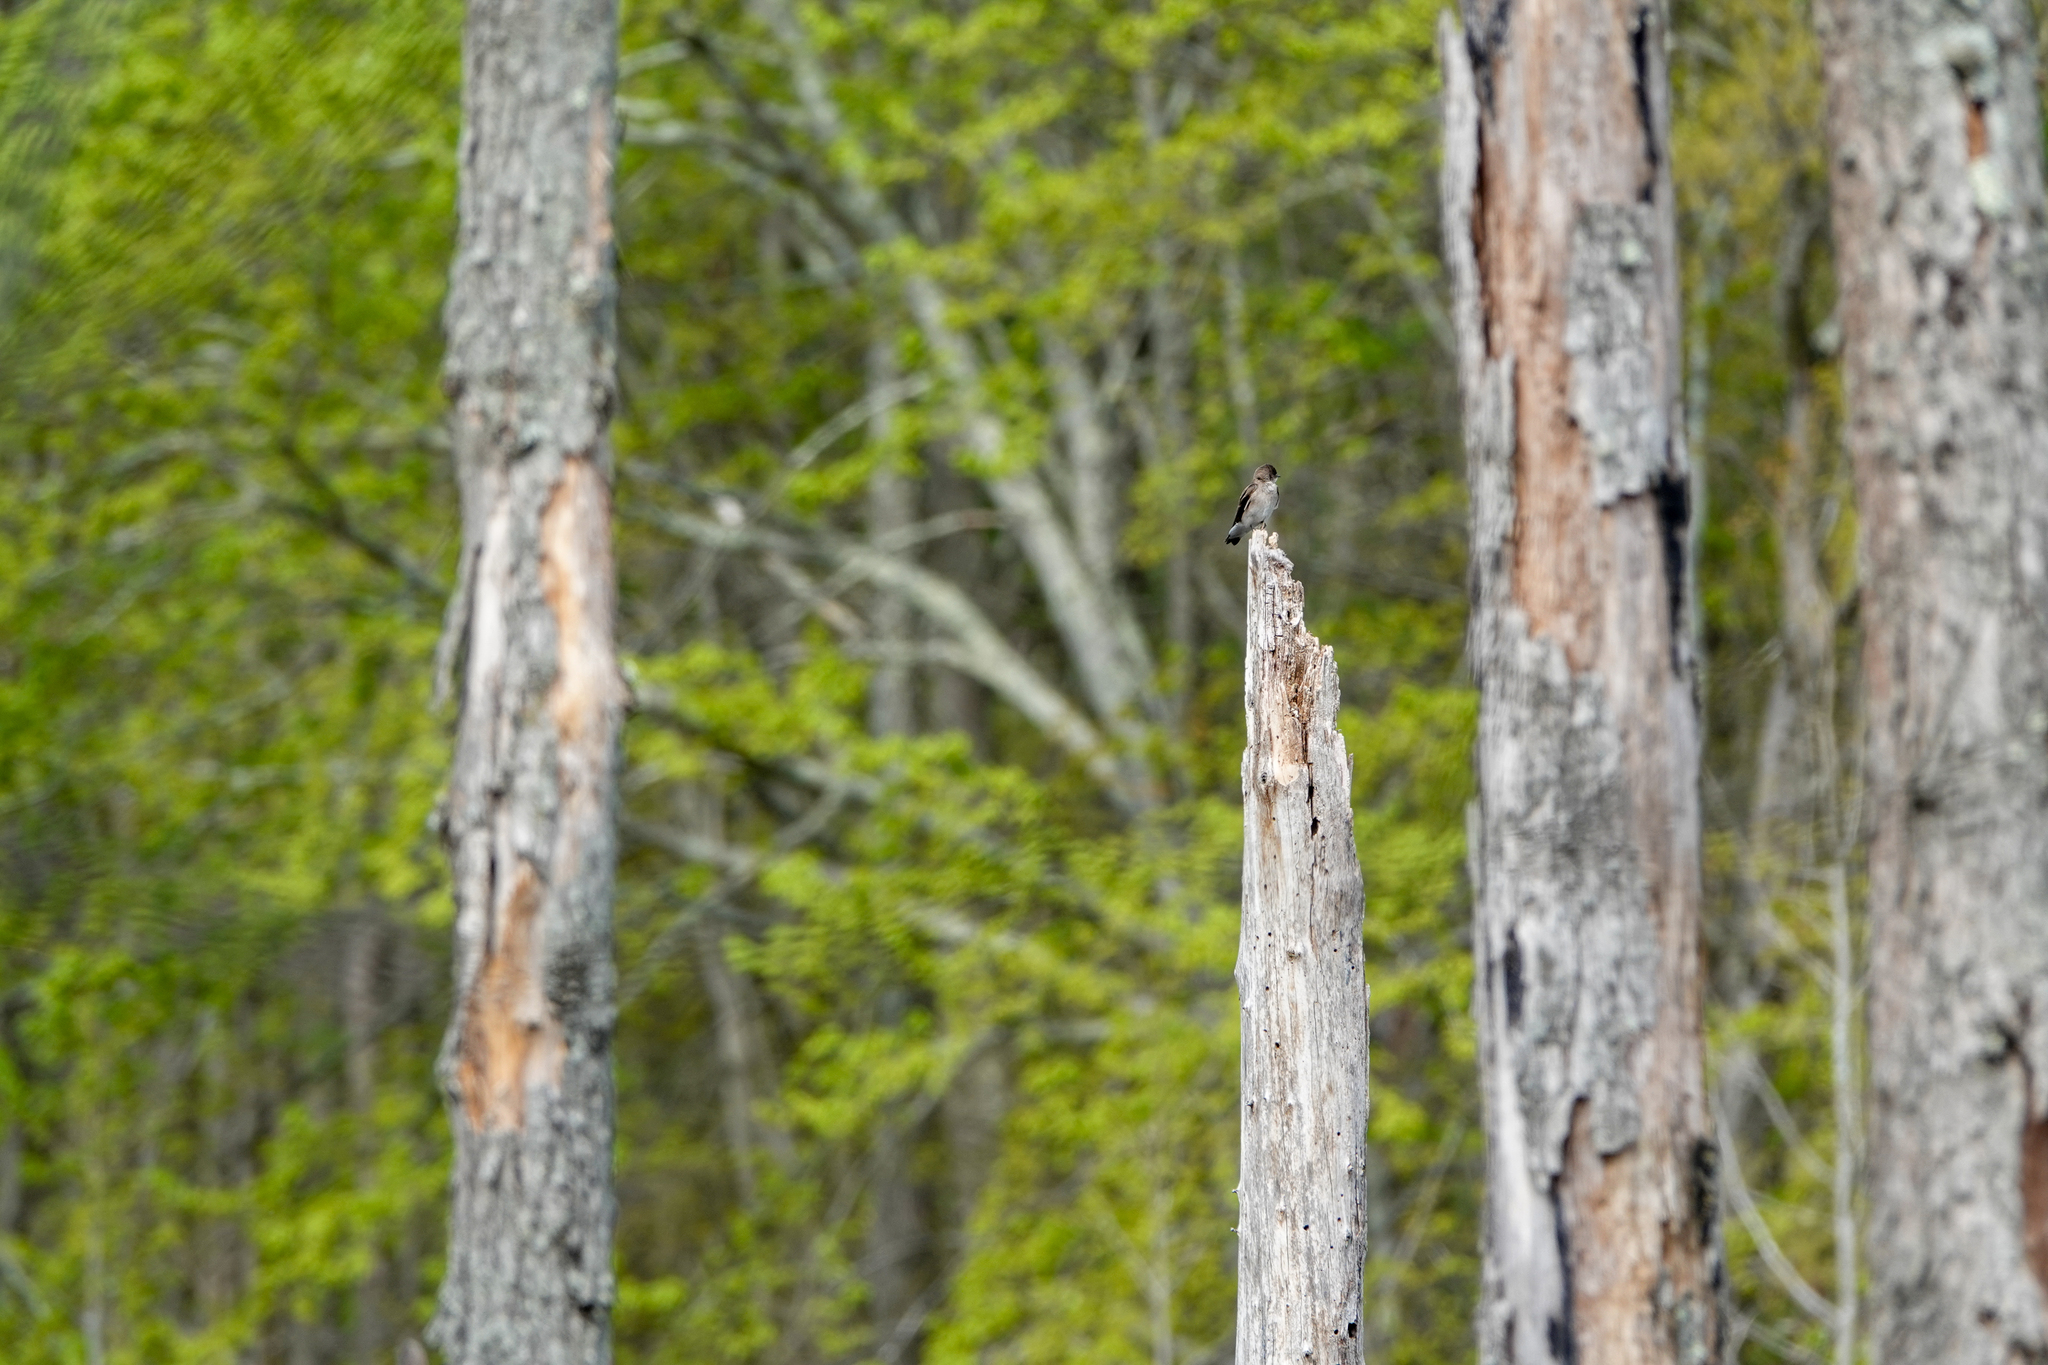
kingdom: Animalia
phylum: Chordata
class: Aves
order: Passeriformes
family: Hirundinidae
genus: Stelgidopteryx
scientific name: Stelgidopteryx serripennis
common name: Northern rough-winged swallow
